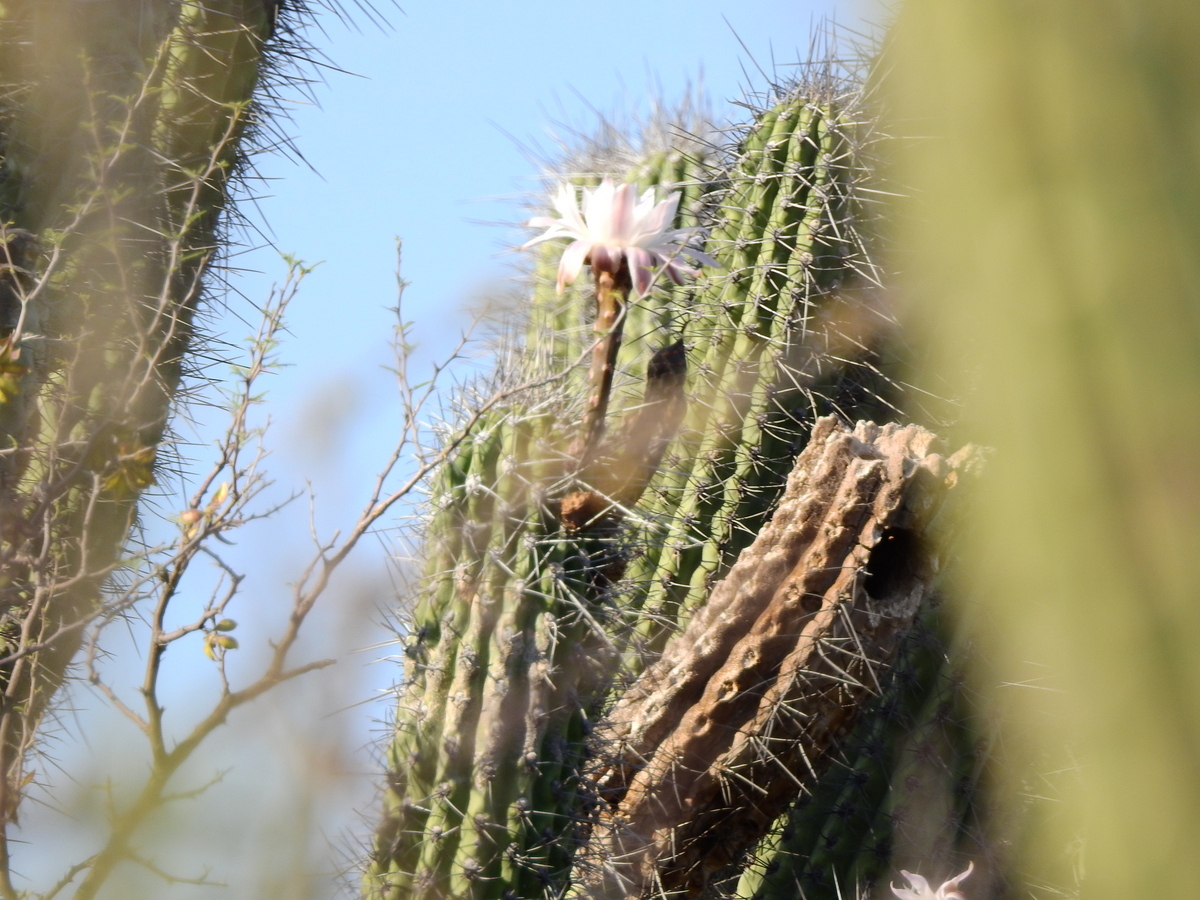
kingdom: Plantae
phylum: Tracheophyta
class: Magnoliopsida
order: Caryophyllales
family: Cactaceae
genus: Stetsonia
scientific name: Stetsonia coryne
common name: Toothpick cactus
